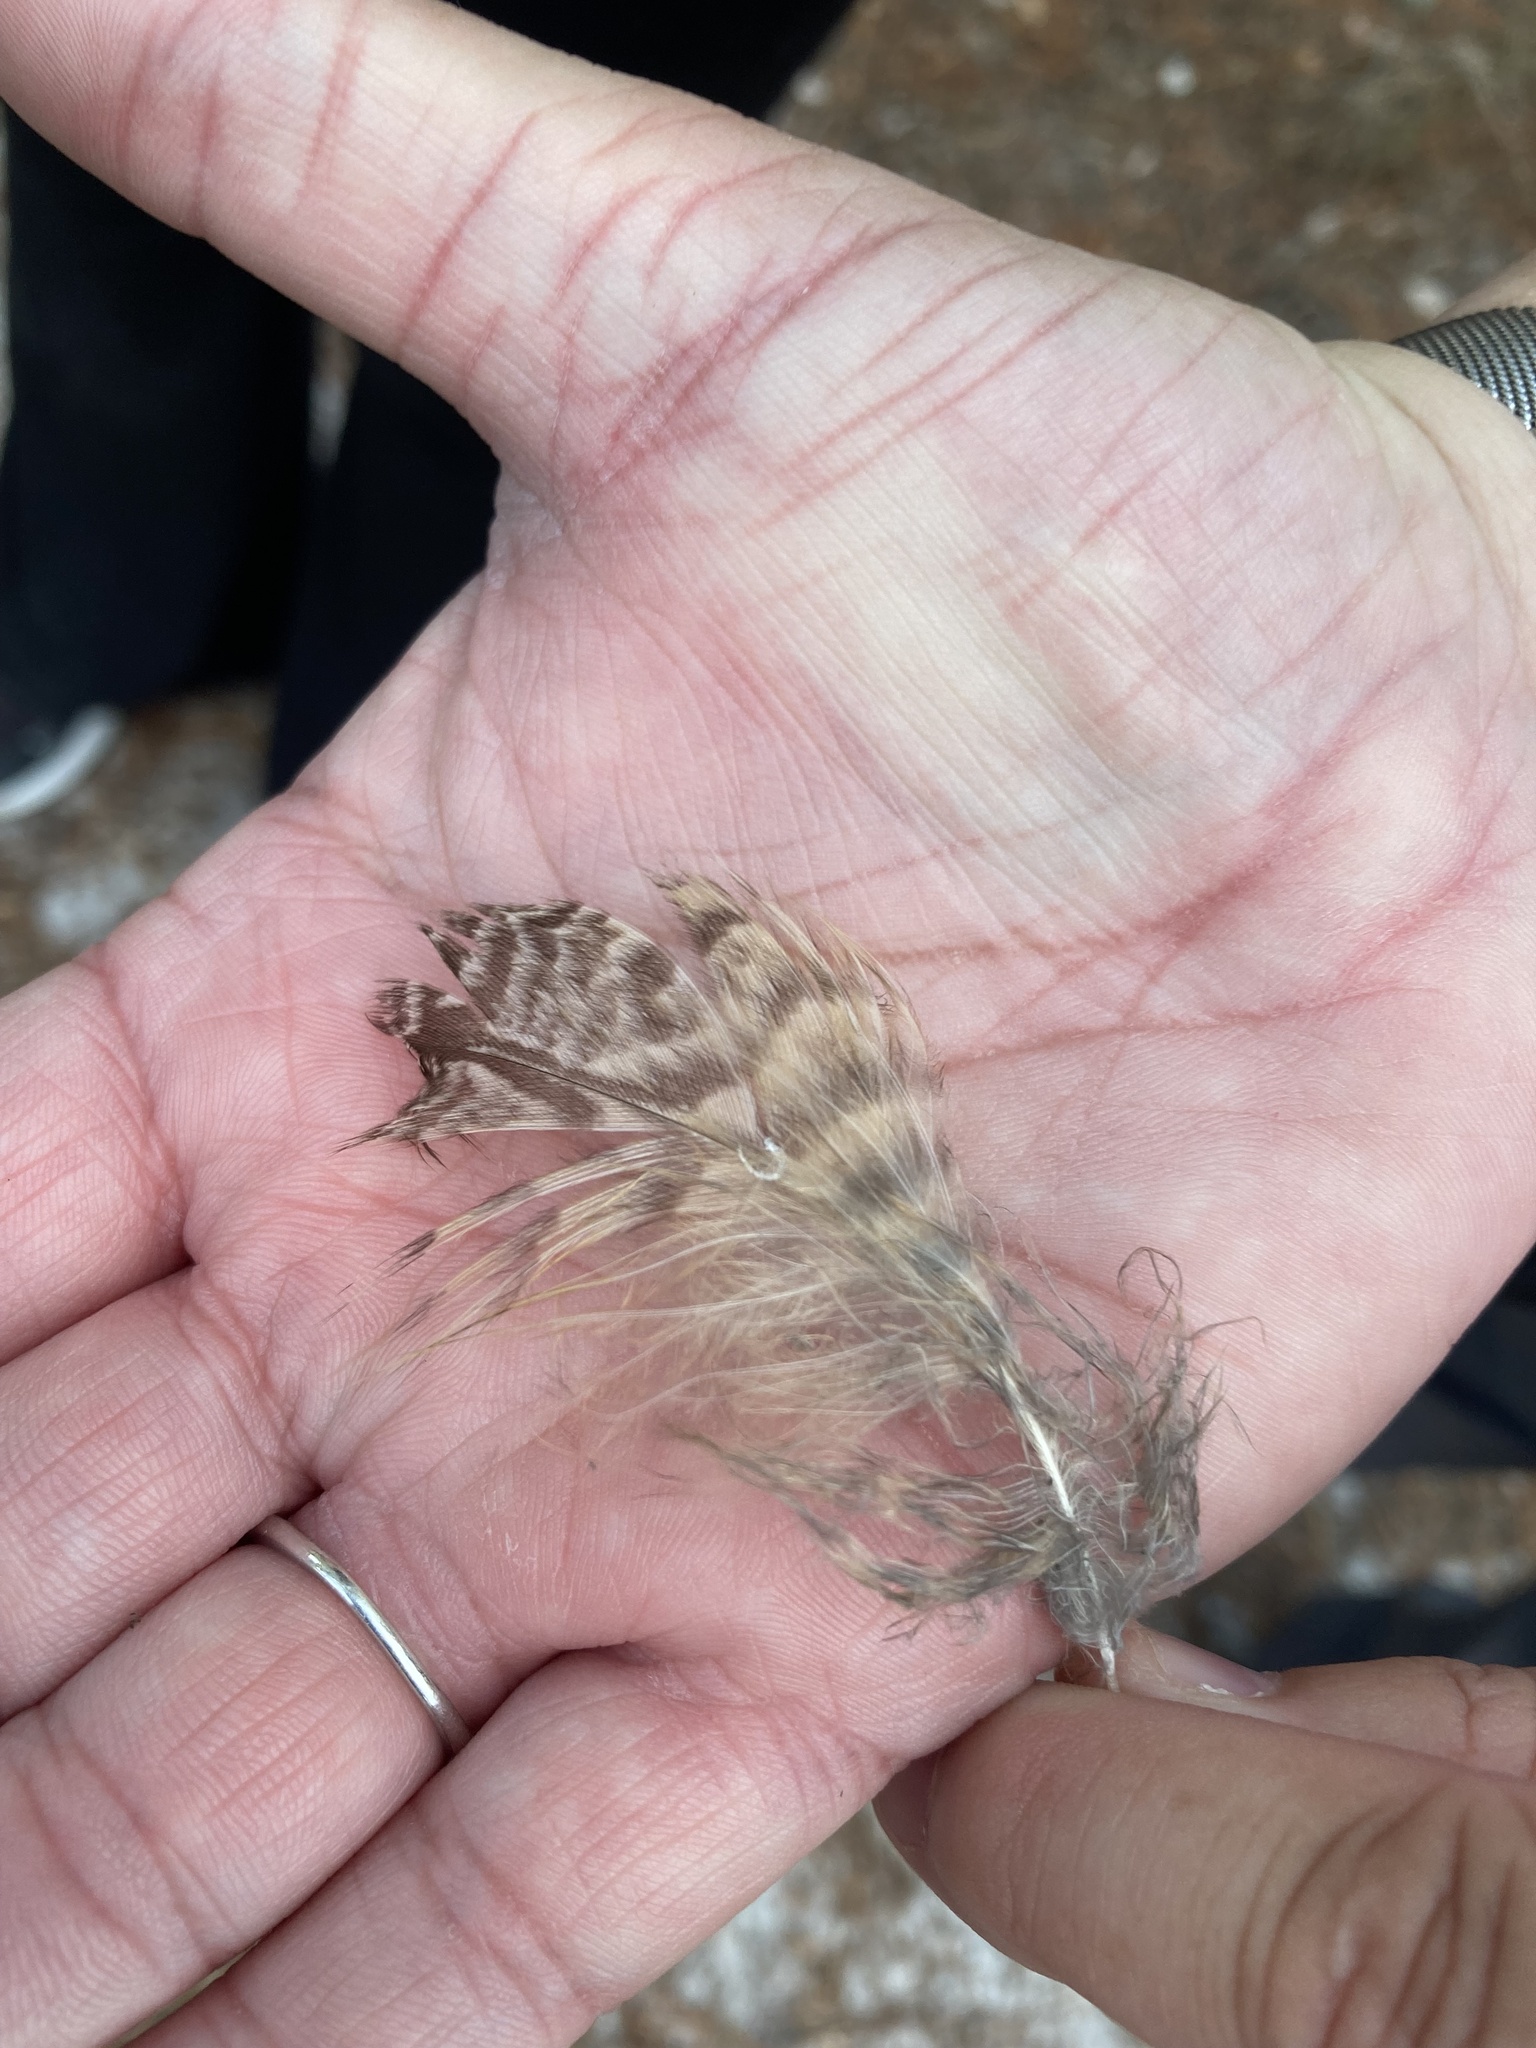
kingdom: Animalia
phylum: Chordata
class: Aves
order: Strigiformes
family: Strigidae
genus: Bubo
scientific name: Bubo virginianus
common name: Great horned owl
